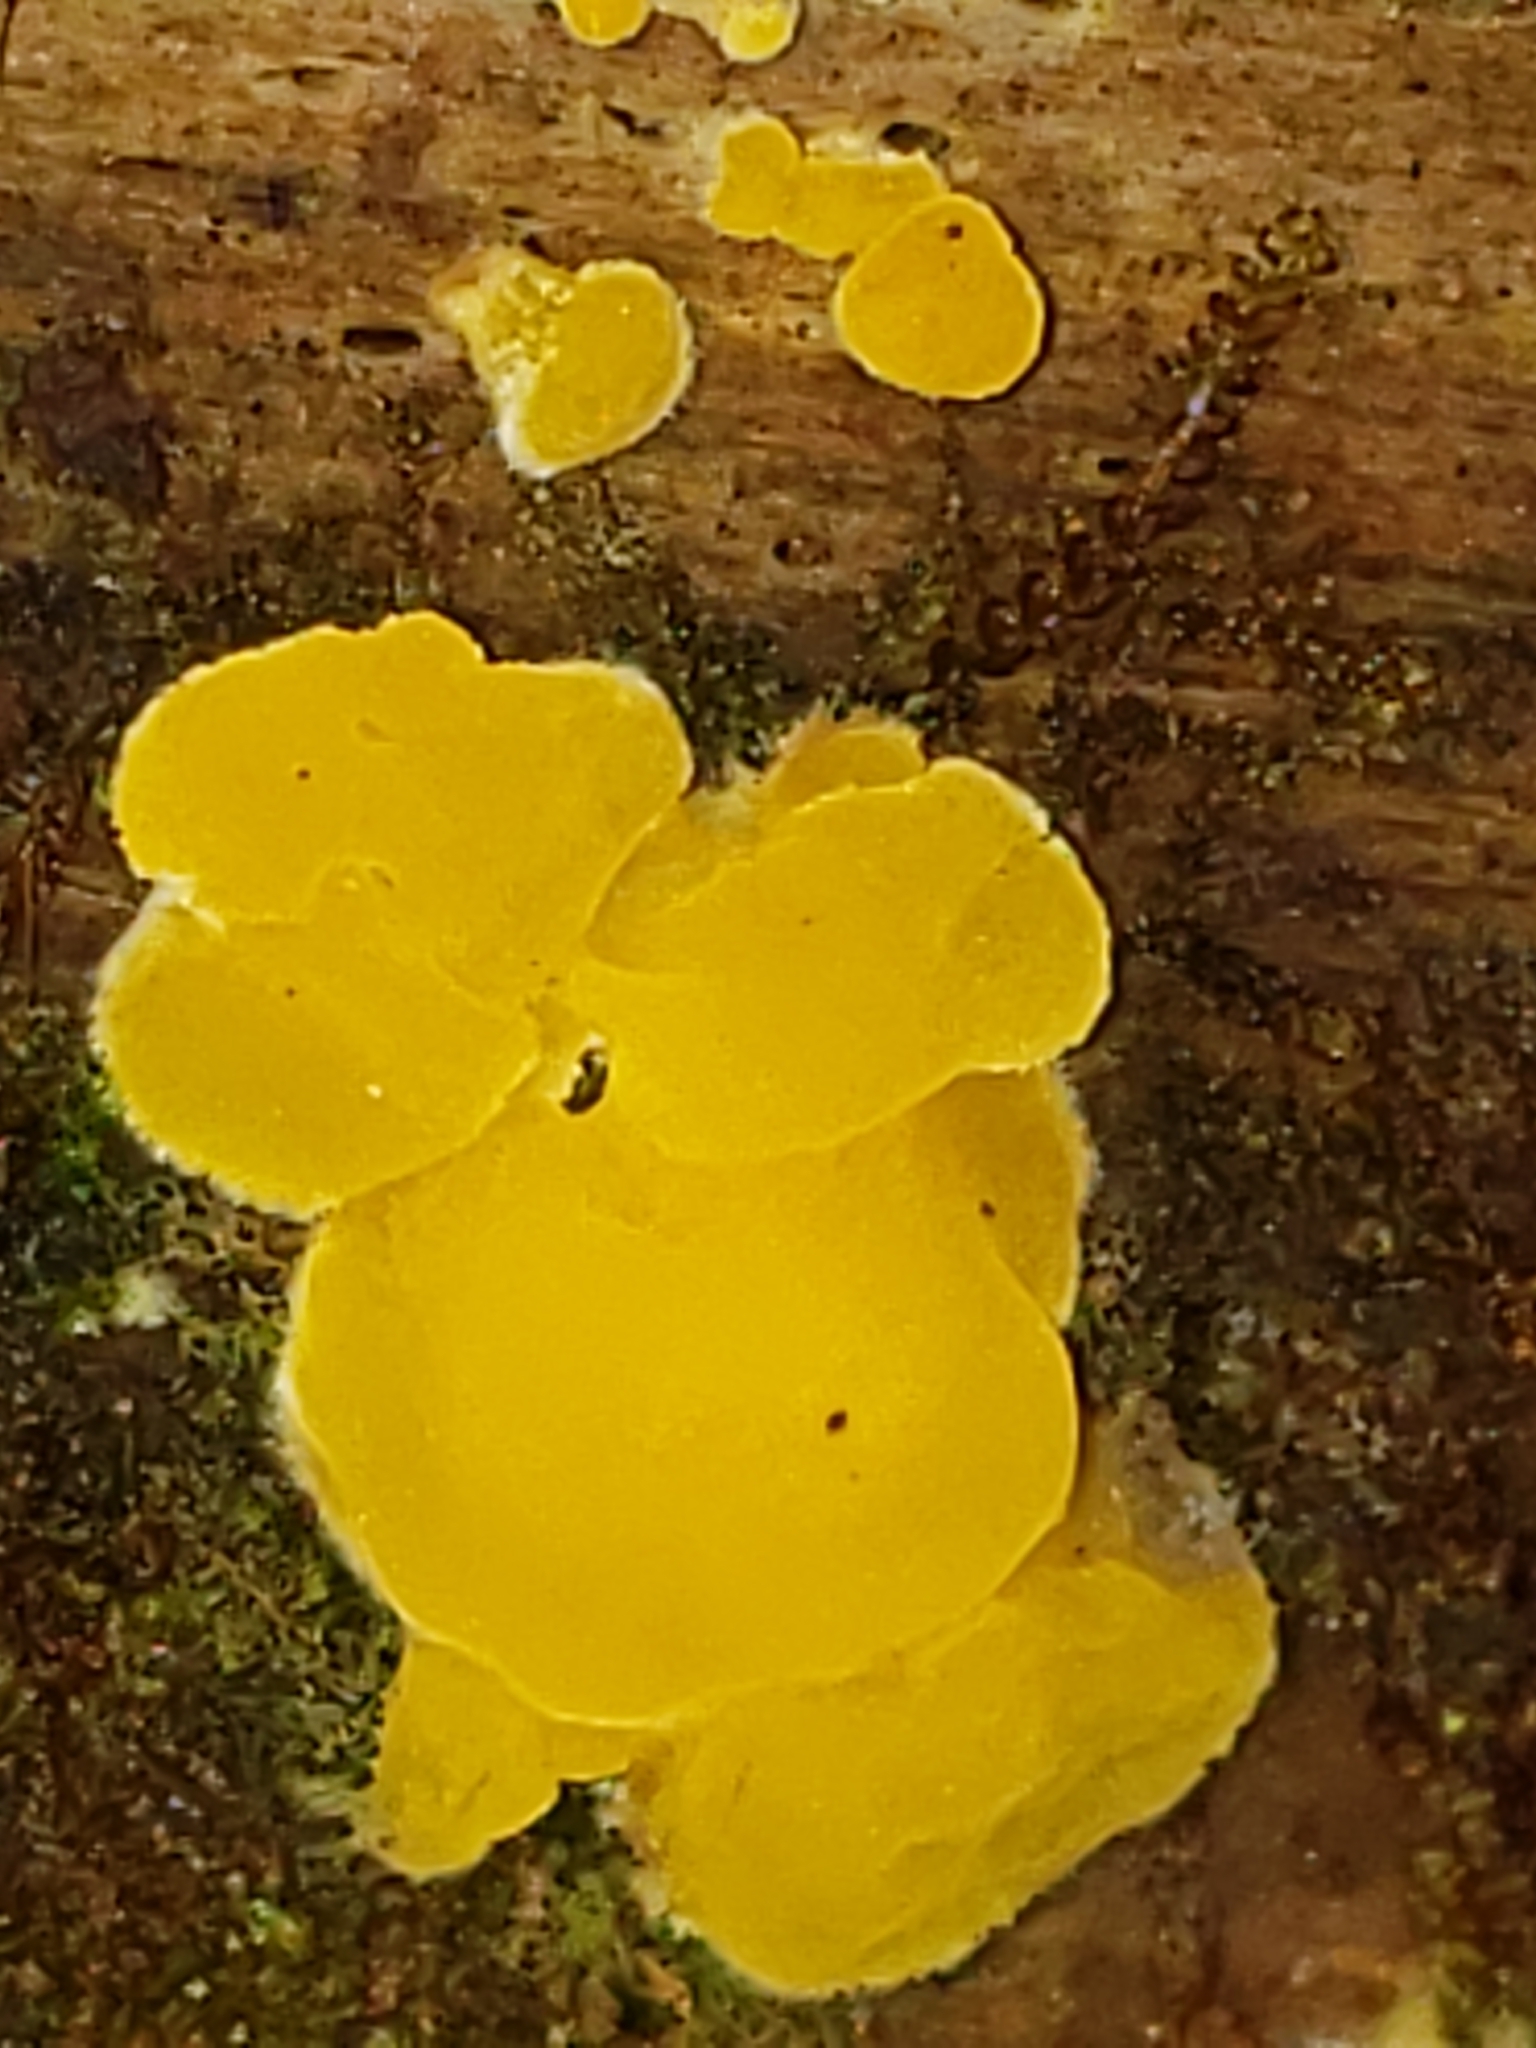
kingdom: Fungi
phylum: Basidiomycota
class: Dacrymycetes
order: Dacrymycetales
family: Dacrymycetaceae
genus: Dacrymyces
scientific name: Dacrymyces corticioides
